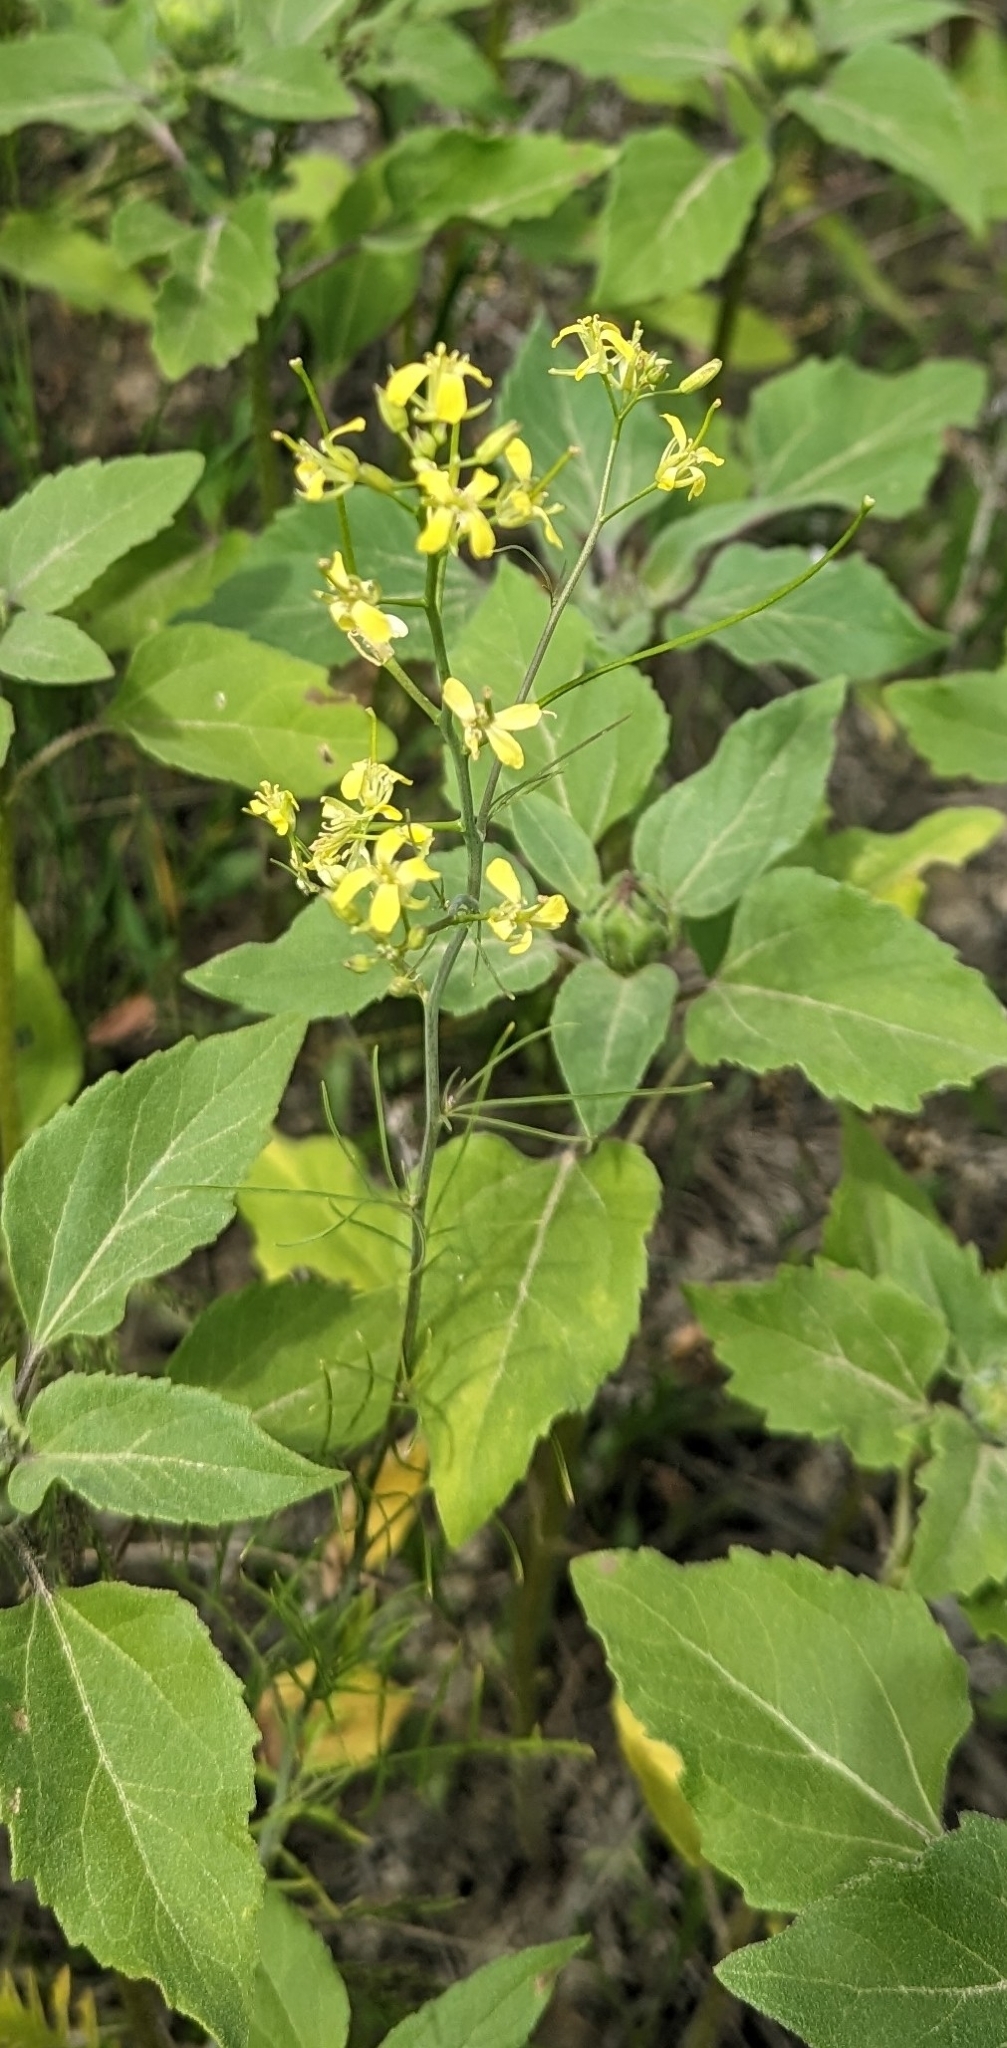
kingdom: Plantae
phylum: Tracheophyta
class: Magnoliopsida
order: Brassicales
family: Brassicaceae
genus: Sisymbrium
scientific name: Sisymbrium altissimum
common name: Tall rocket
